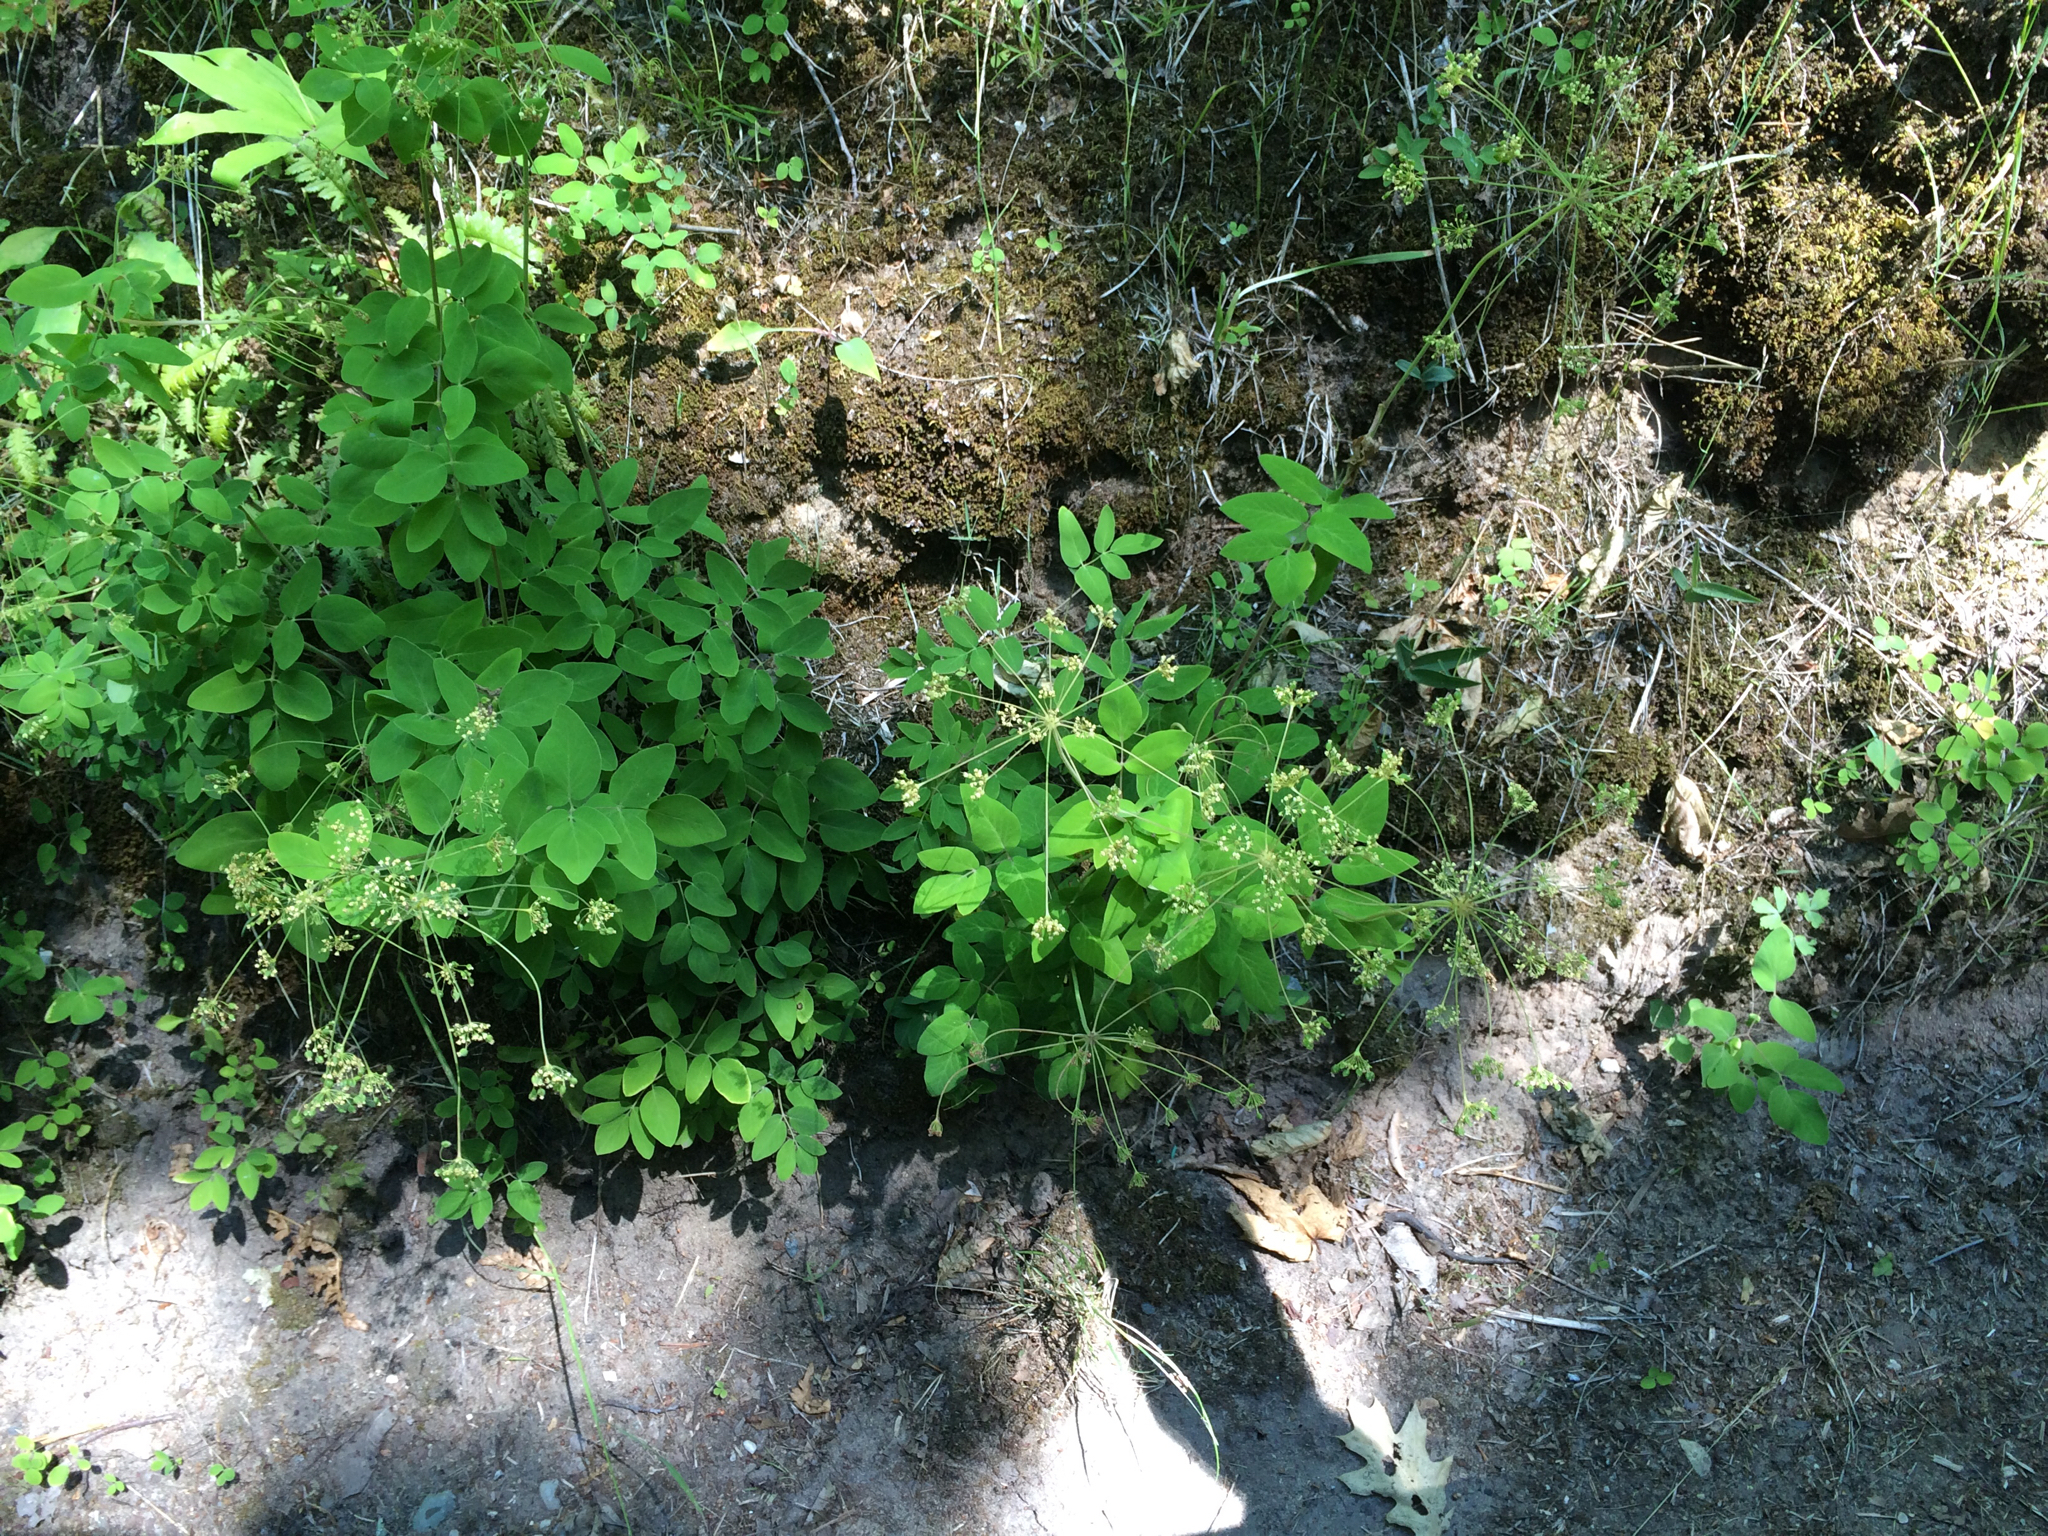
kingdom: Plantae
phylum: Tracheophyta
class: Magnoliopsida
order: Apiales
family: Apiaceae
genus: Taenidia
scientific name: Taenidia integerrima
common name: Golden alexander
